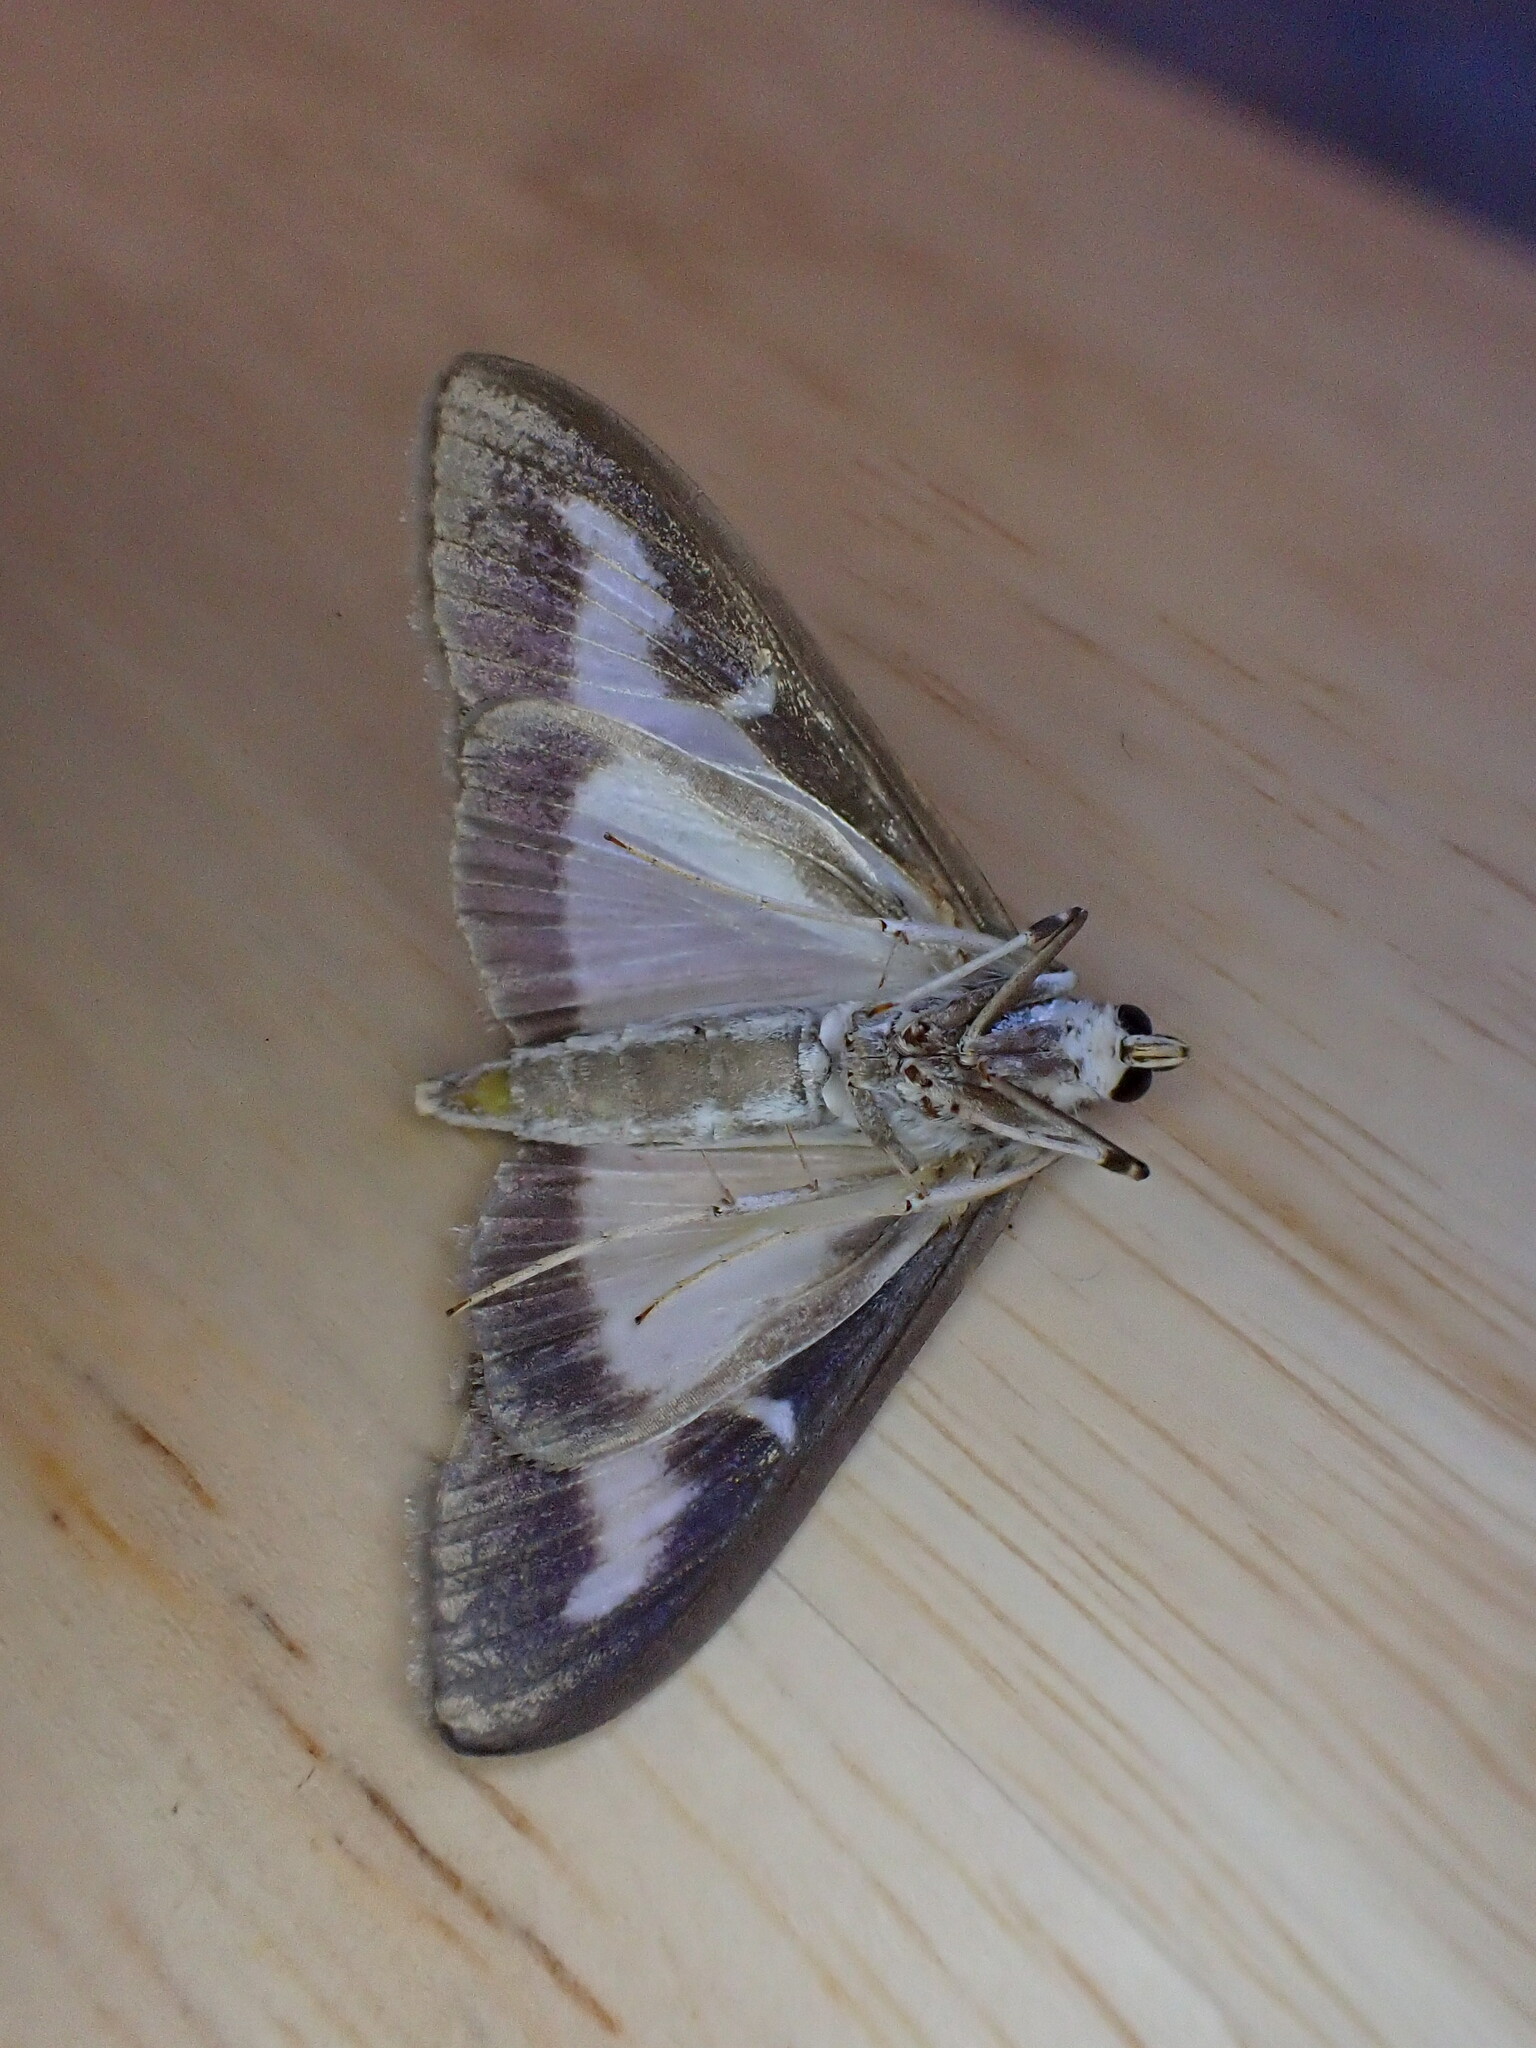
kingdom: Animalia
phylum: Arthropoda
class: Insecta
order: Lepidoptera
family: Crambidae
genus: Cydalima
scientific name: Cydalima perspectalis
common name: Box tree moth
